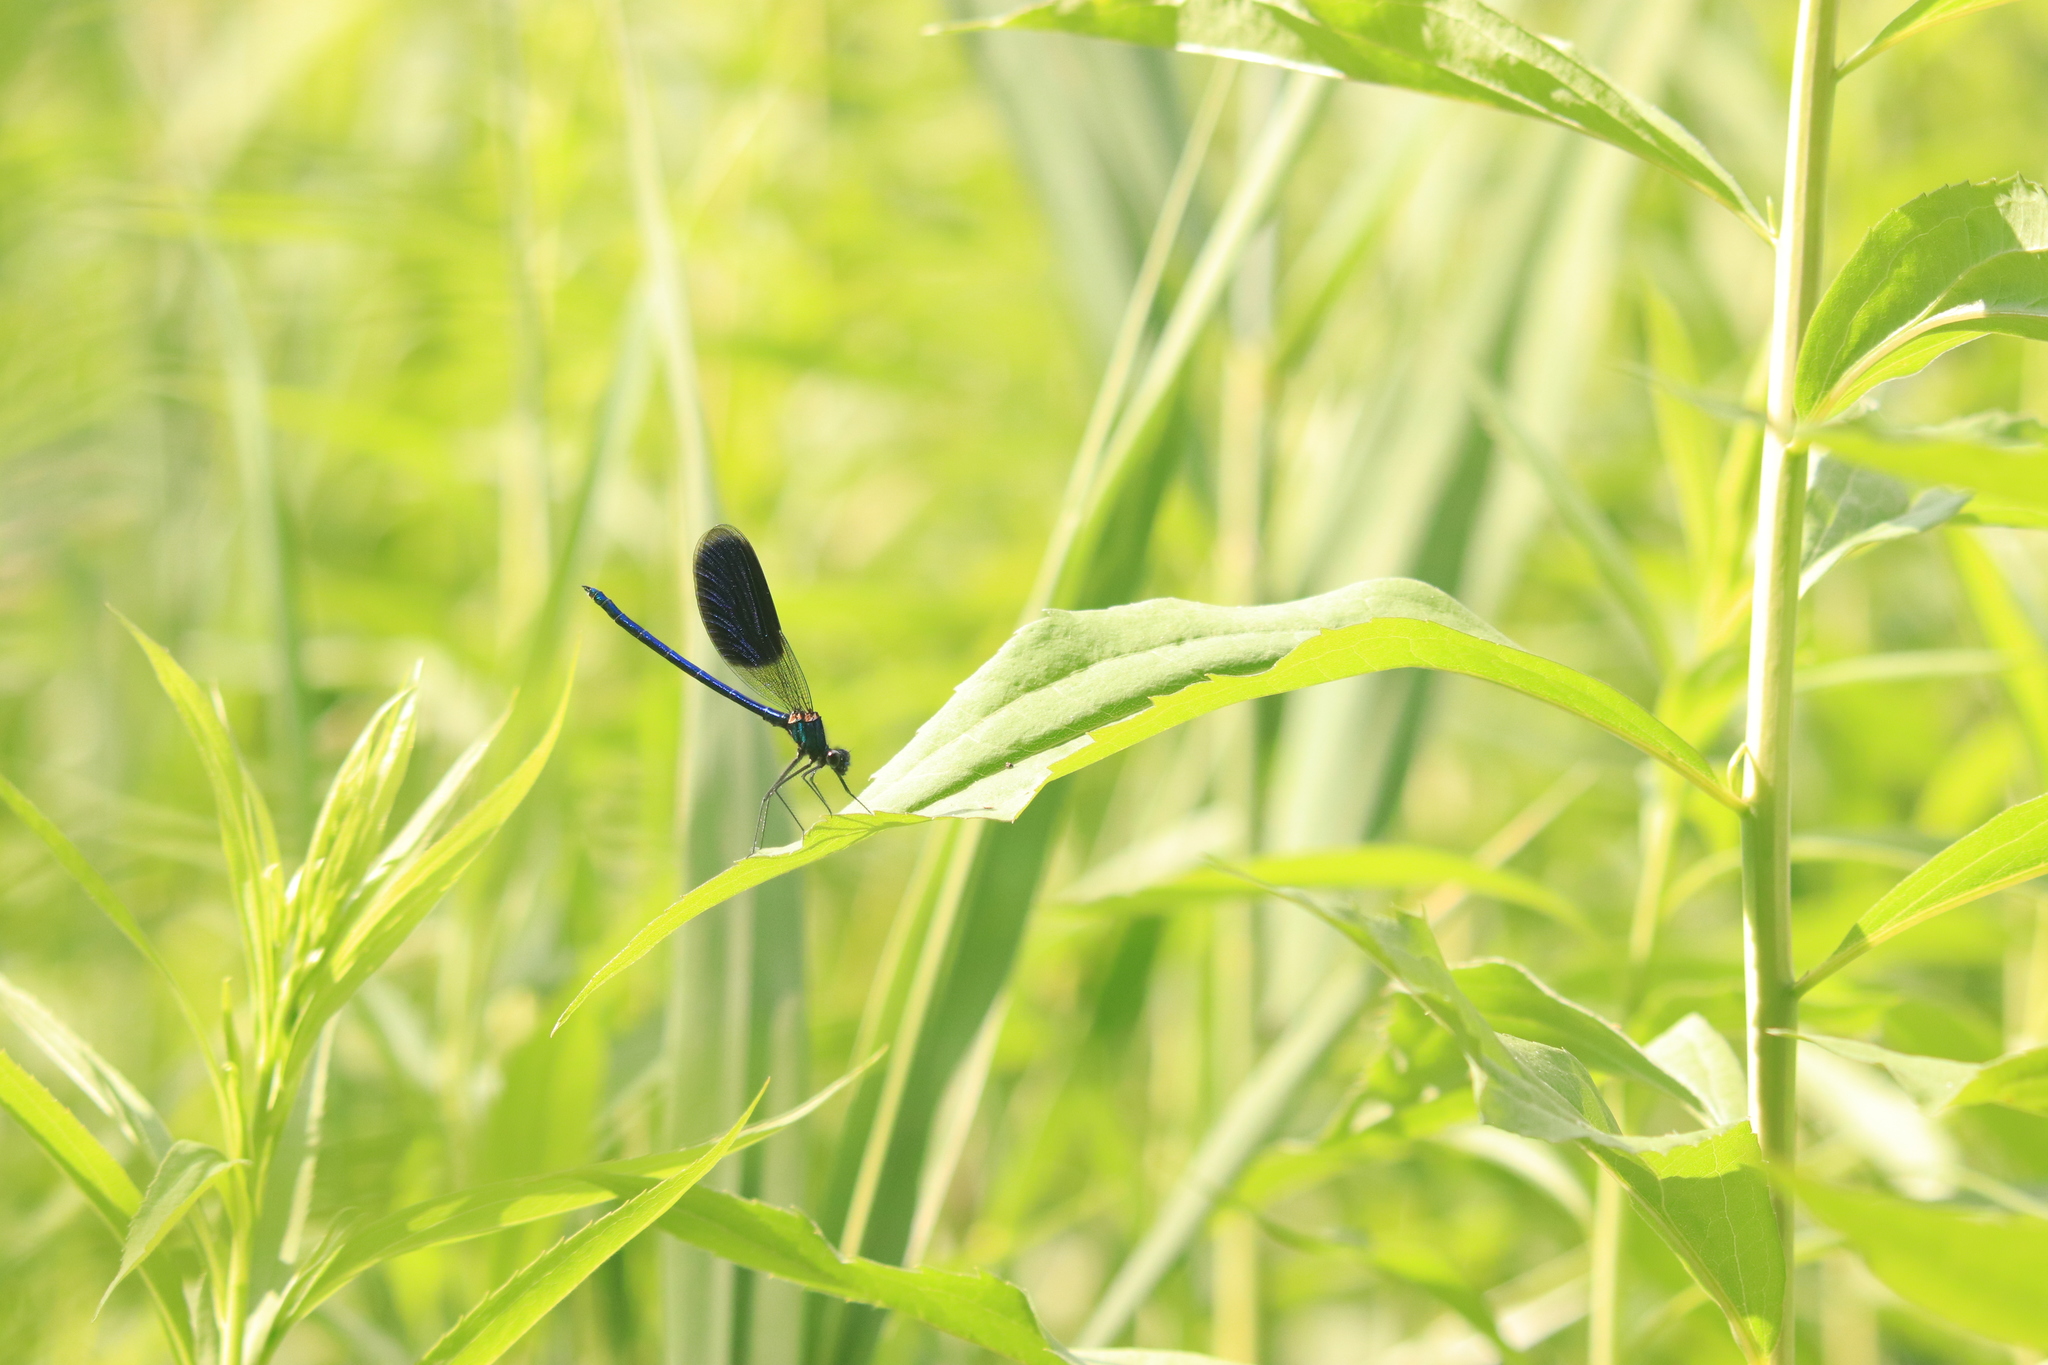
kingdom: Animalia
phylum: Arthropoda
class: Insecta
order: Odonata
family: Calopterygidae
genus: Calopteryx
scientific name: Calopteryx splendens
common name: Banded demoiselle
